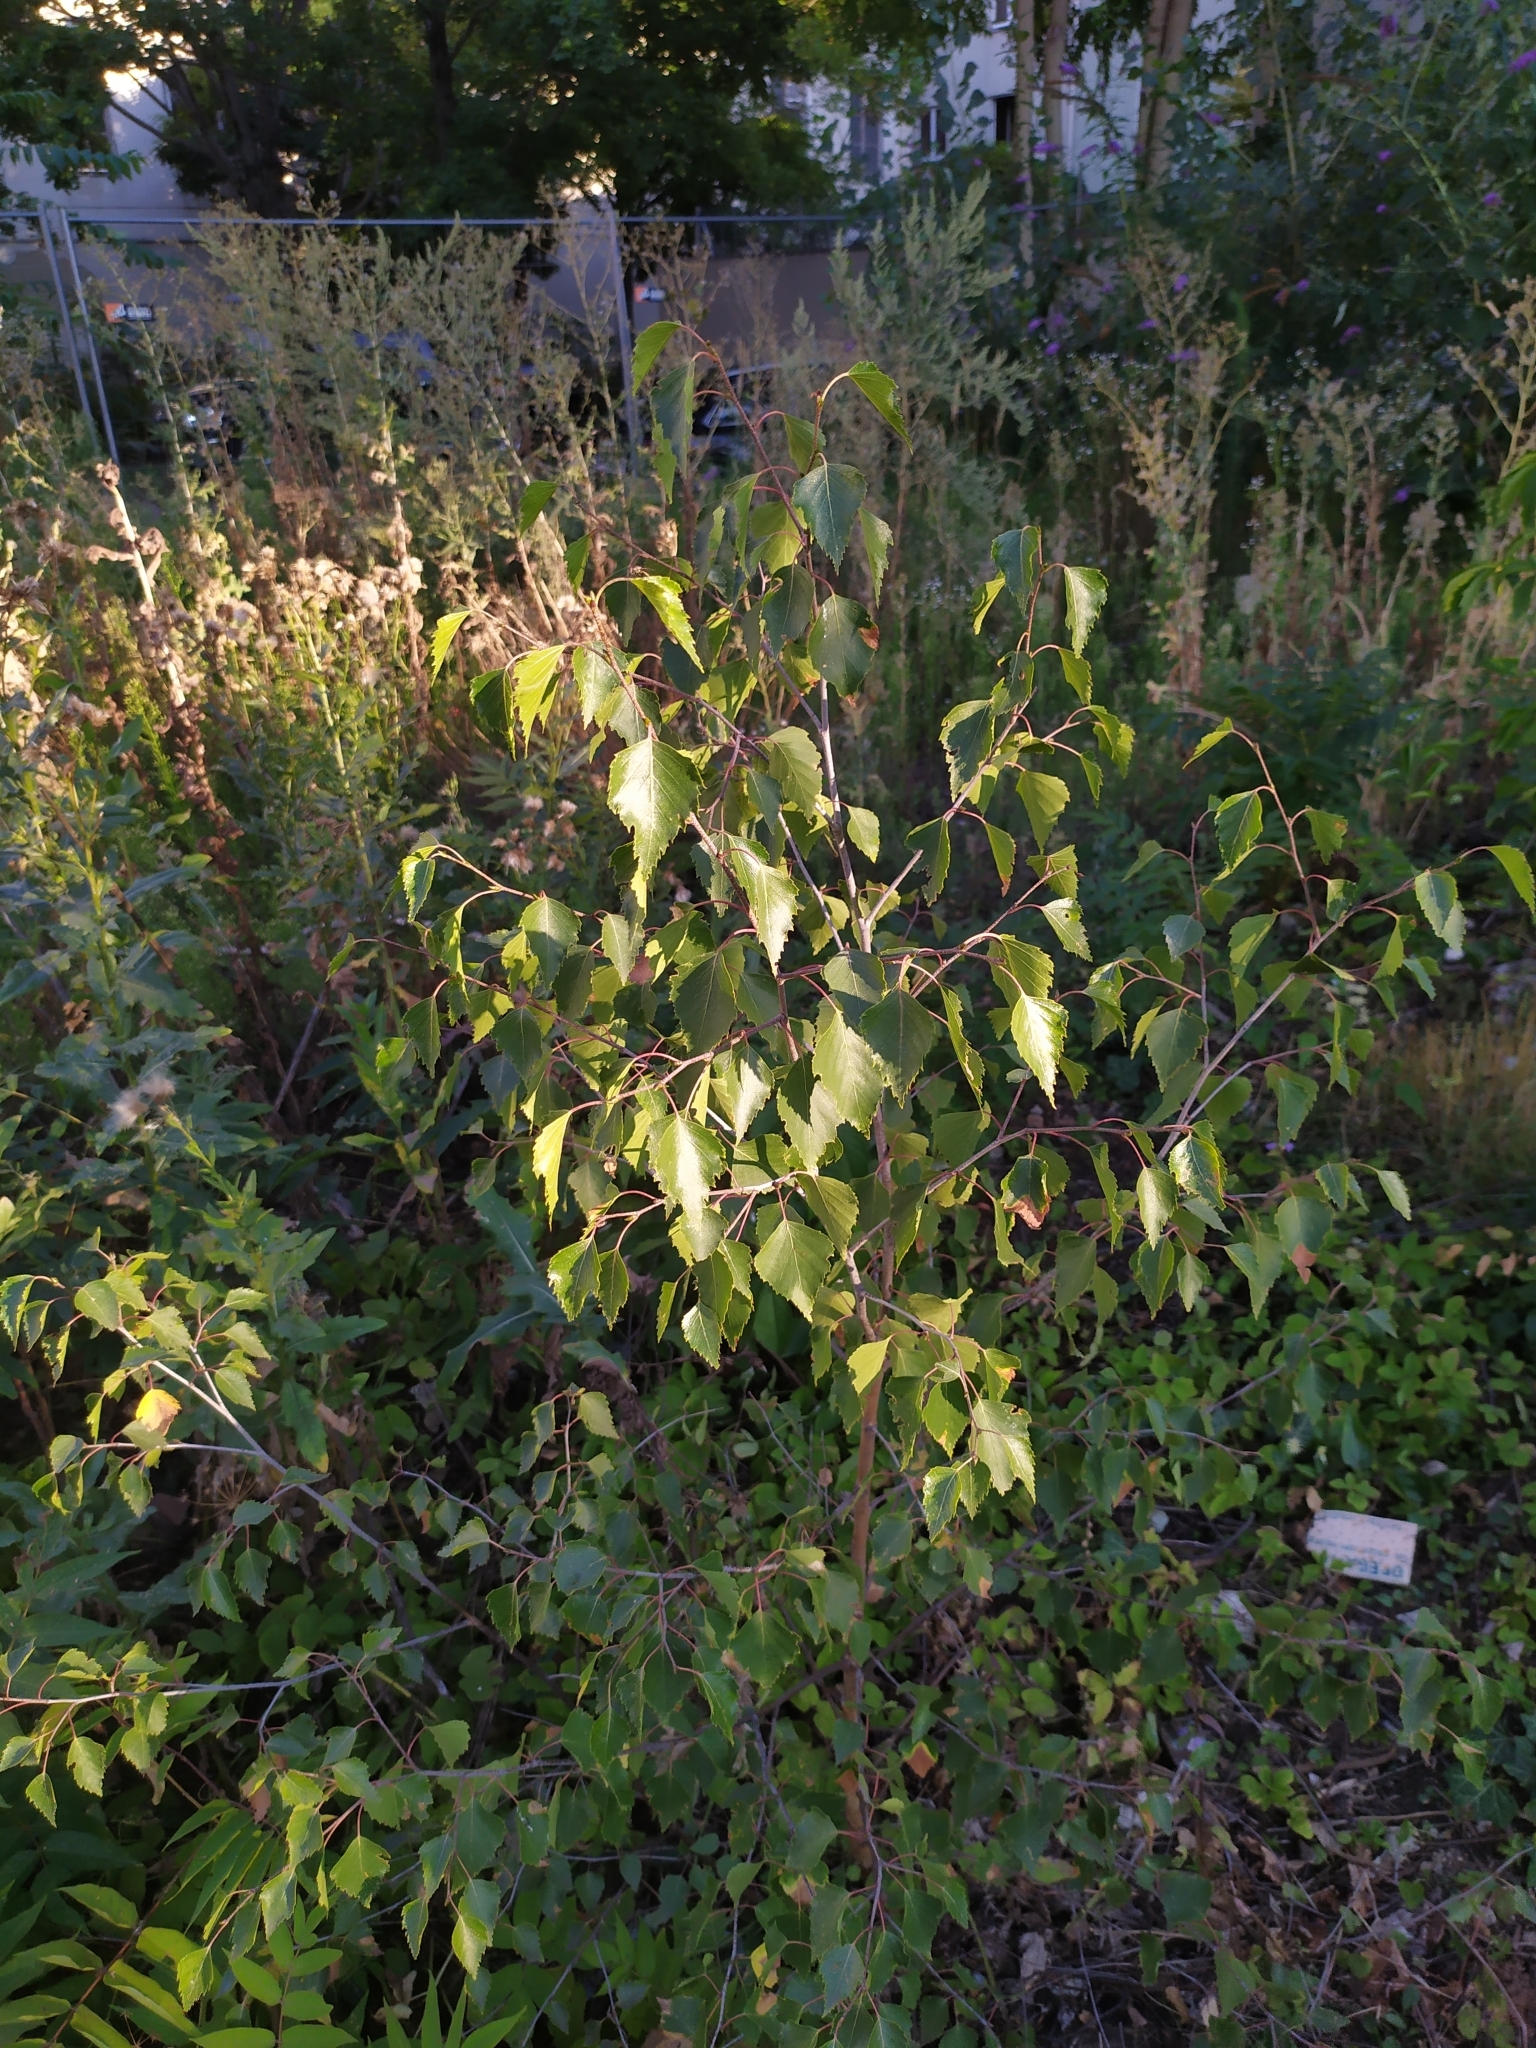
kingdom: Plantae
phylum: Tracheophyta
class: Magnoliopsida
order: Fagales
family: Betulaceae
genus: Betula
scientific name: Betula pendula
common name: Silver birch
